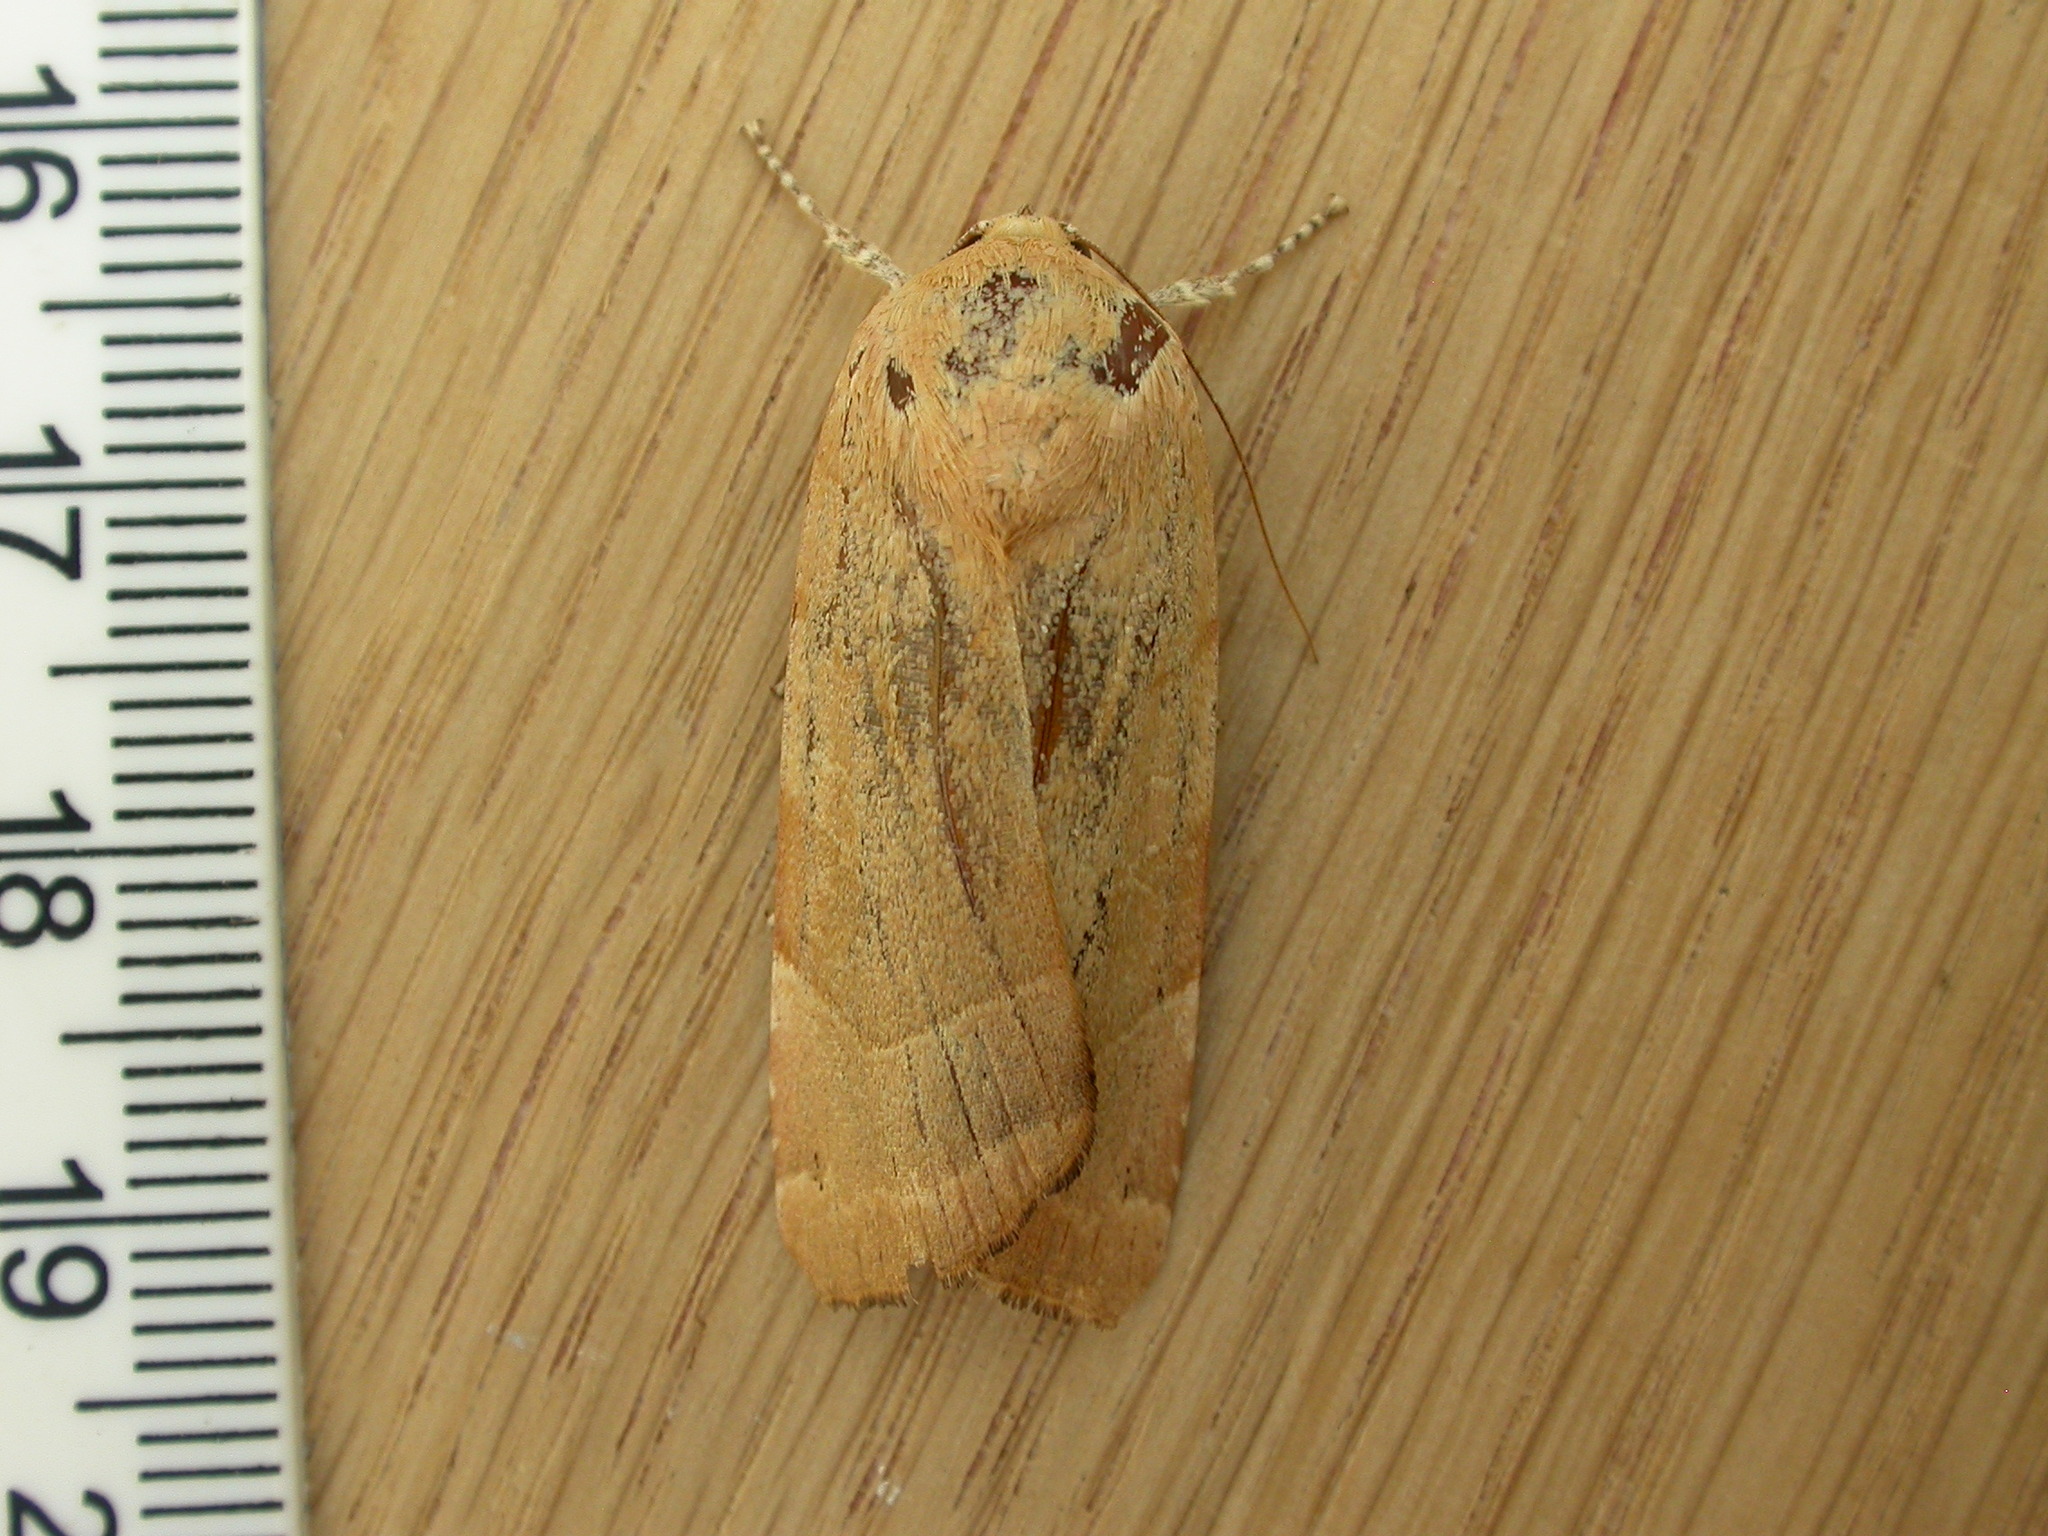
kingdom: Animalia
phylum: Arthropoda
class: Insecta
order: Lepidoptera
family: Noctuidae
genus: Noctua
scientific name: Noctua fimbriata
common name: Broad-bordered yellow underwing
